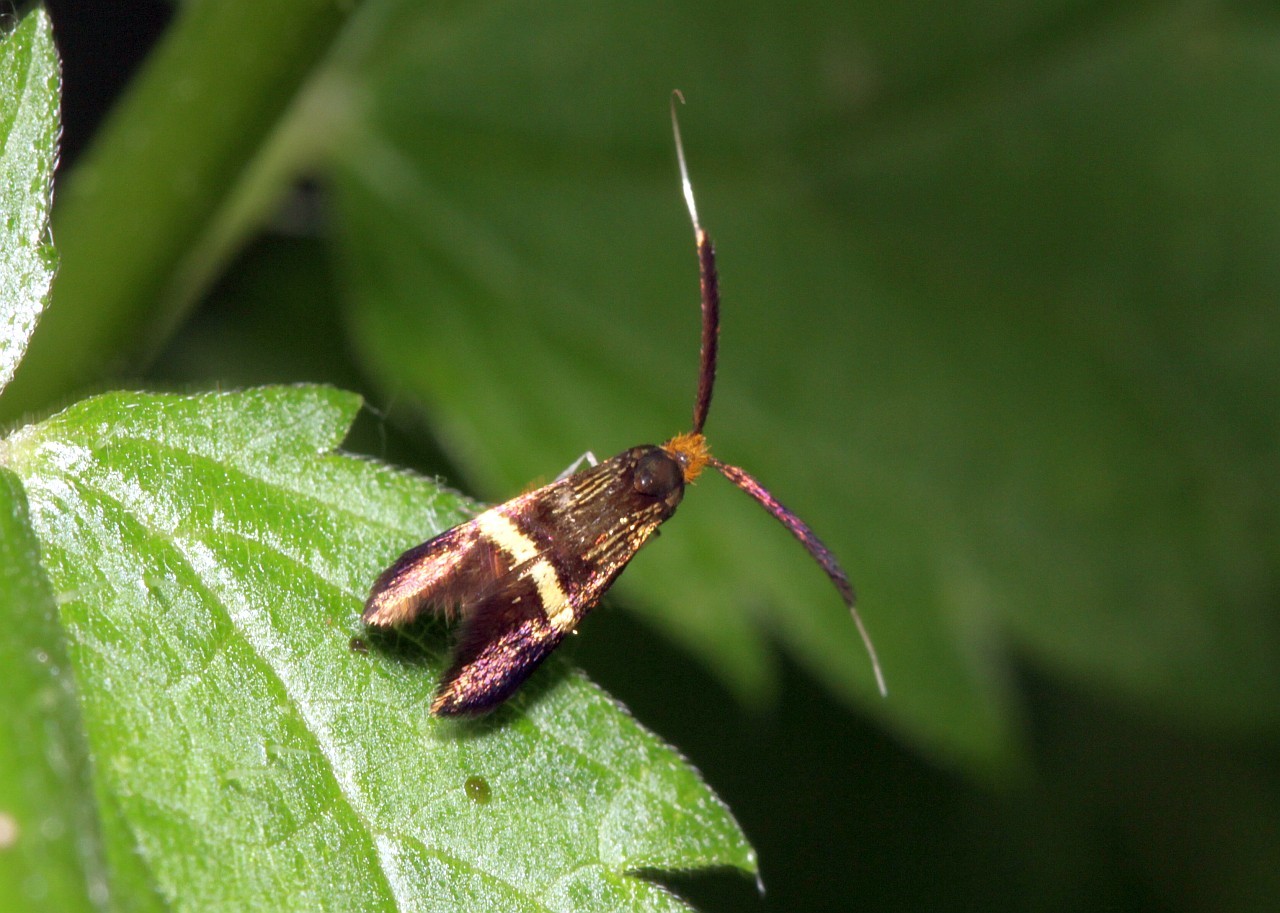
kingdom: Animalia
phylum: Arthropoda
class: Insecta
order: Lepidoptera
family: Adelidae
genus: Adela
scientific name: Adela croesella
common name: Small barred long-horn
